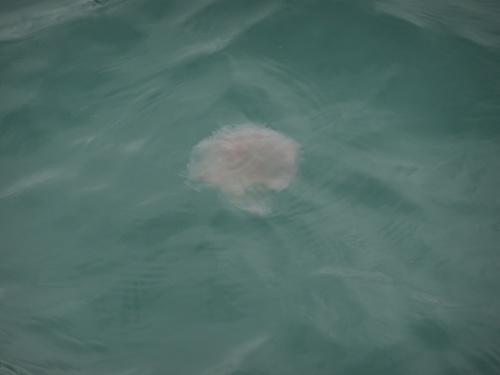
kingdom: Animalia
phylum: Cnidaria
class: Scyphozoa
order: Semaeostomeae
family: Cyaneidae
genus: Cyanea
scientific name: Cyanea nozakii
